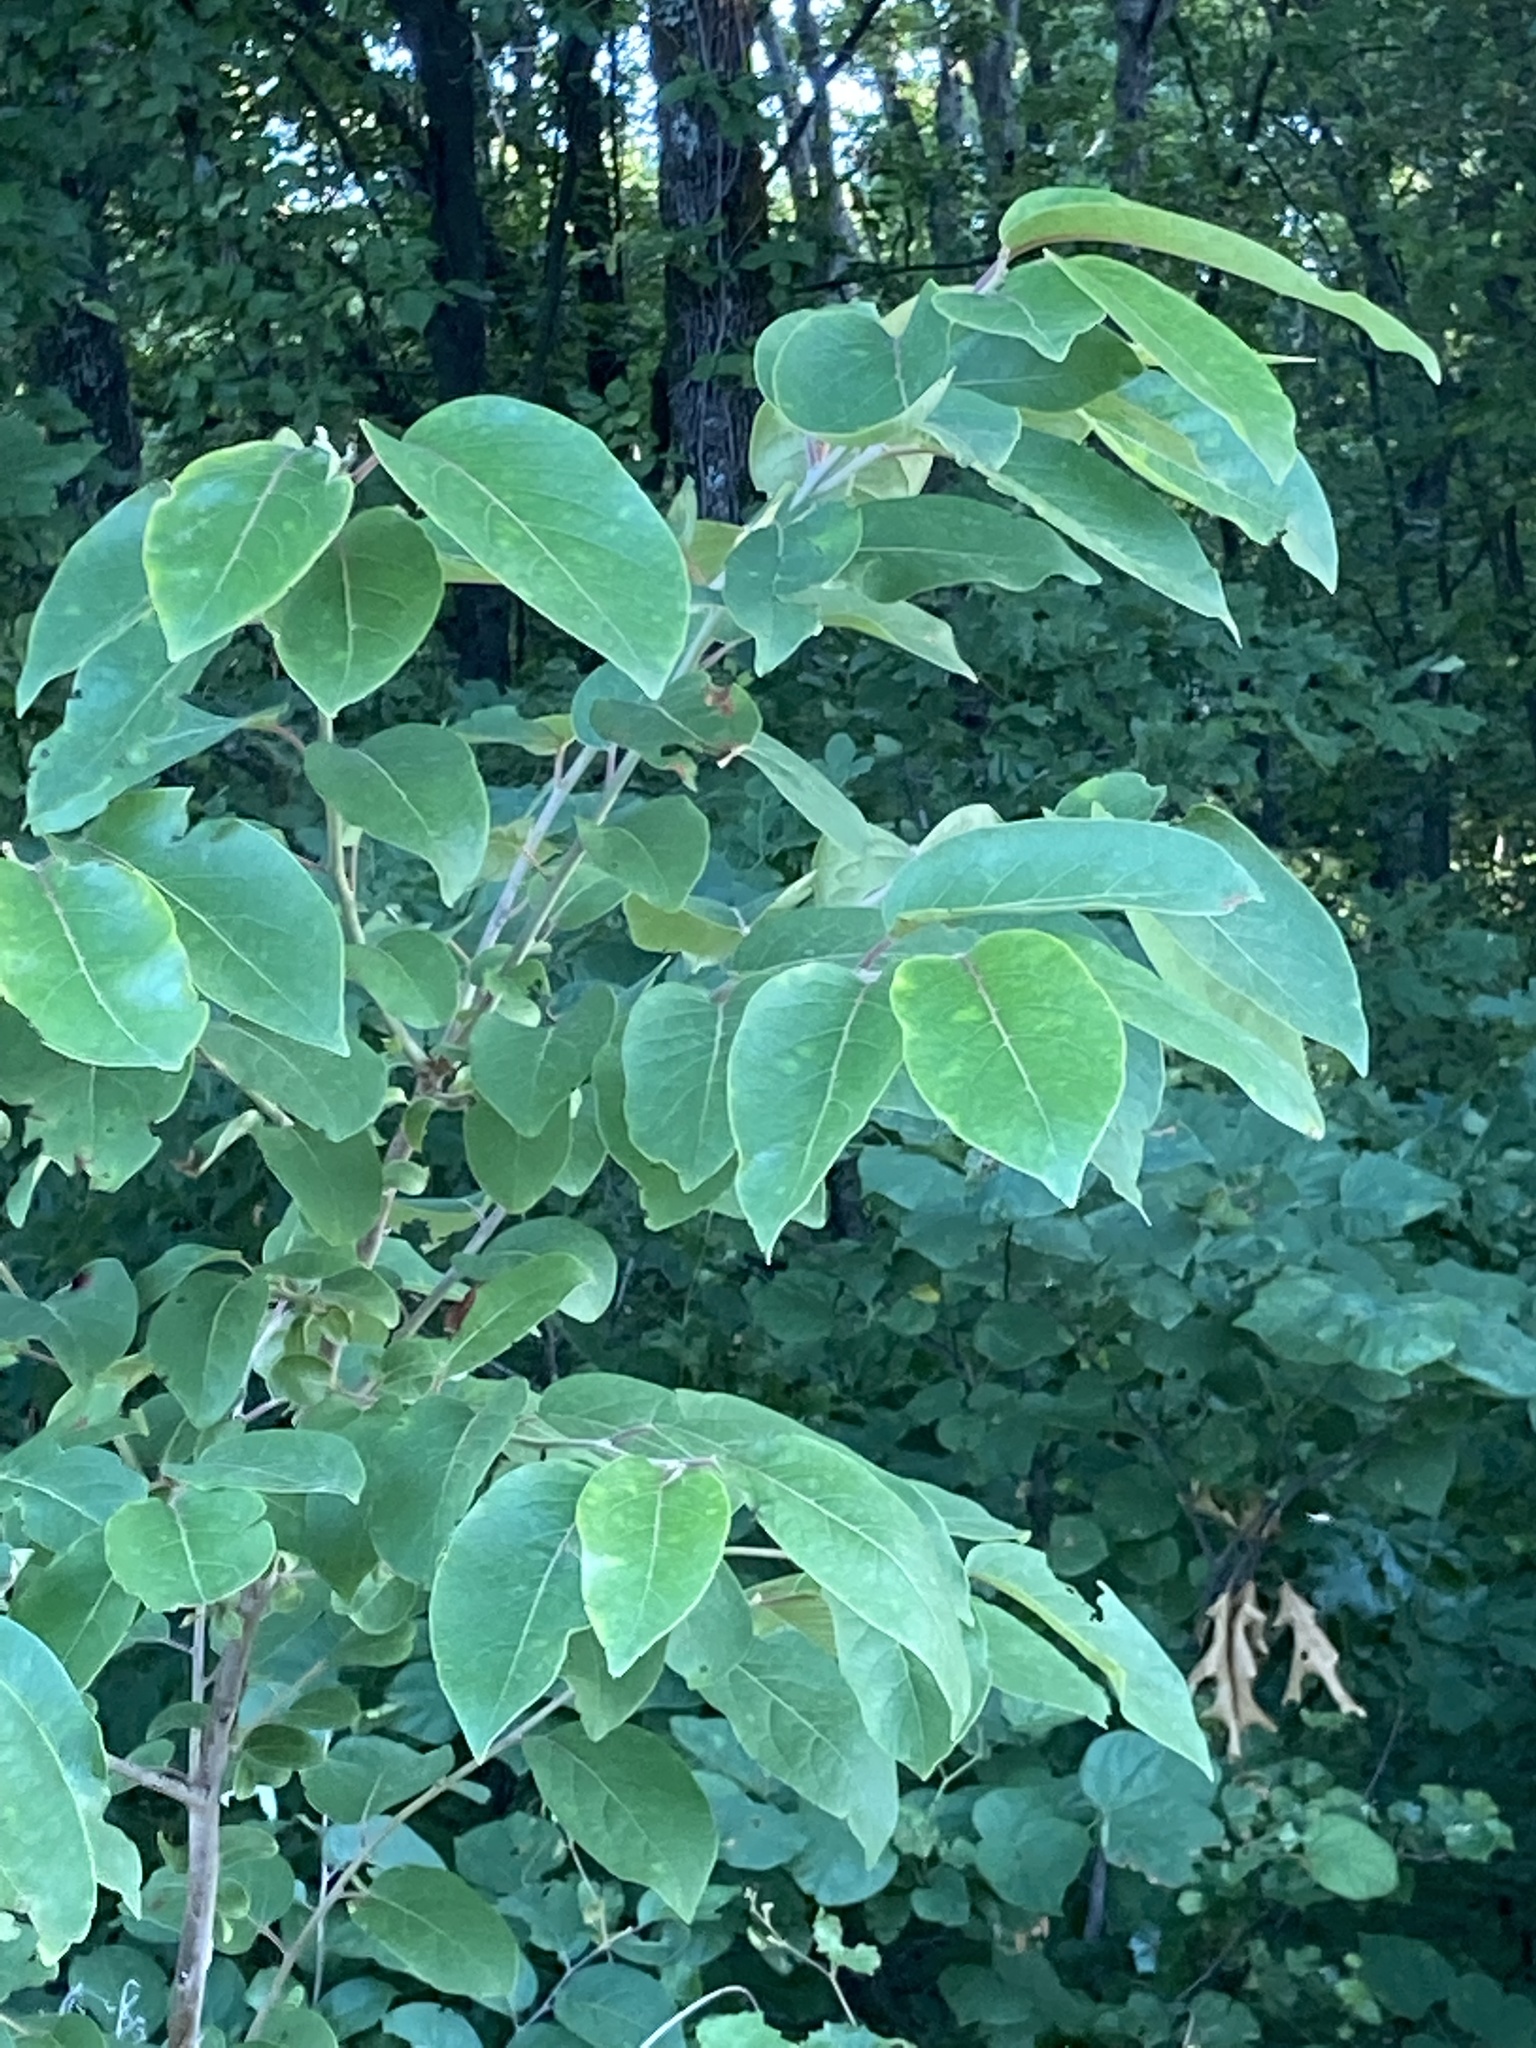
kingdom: Plantae
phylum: Tracheophyta
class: Magnoliopsida
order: Ericales
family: Ebenaceae
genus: Diospyros
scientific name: Diospyros virginiana
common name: Persimmon
